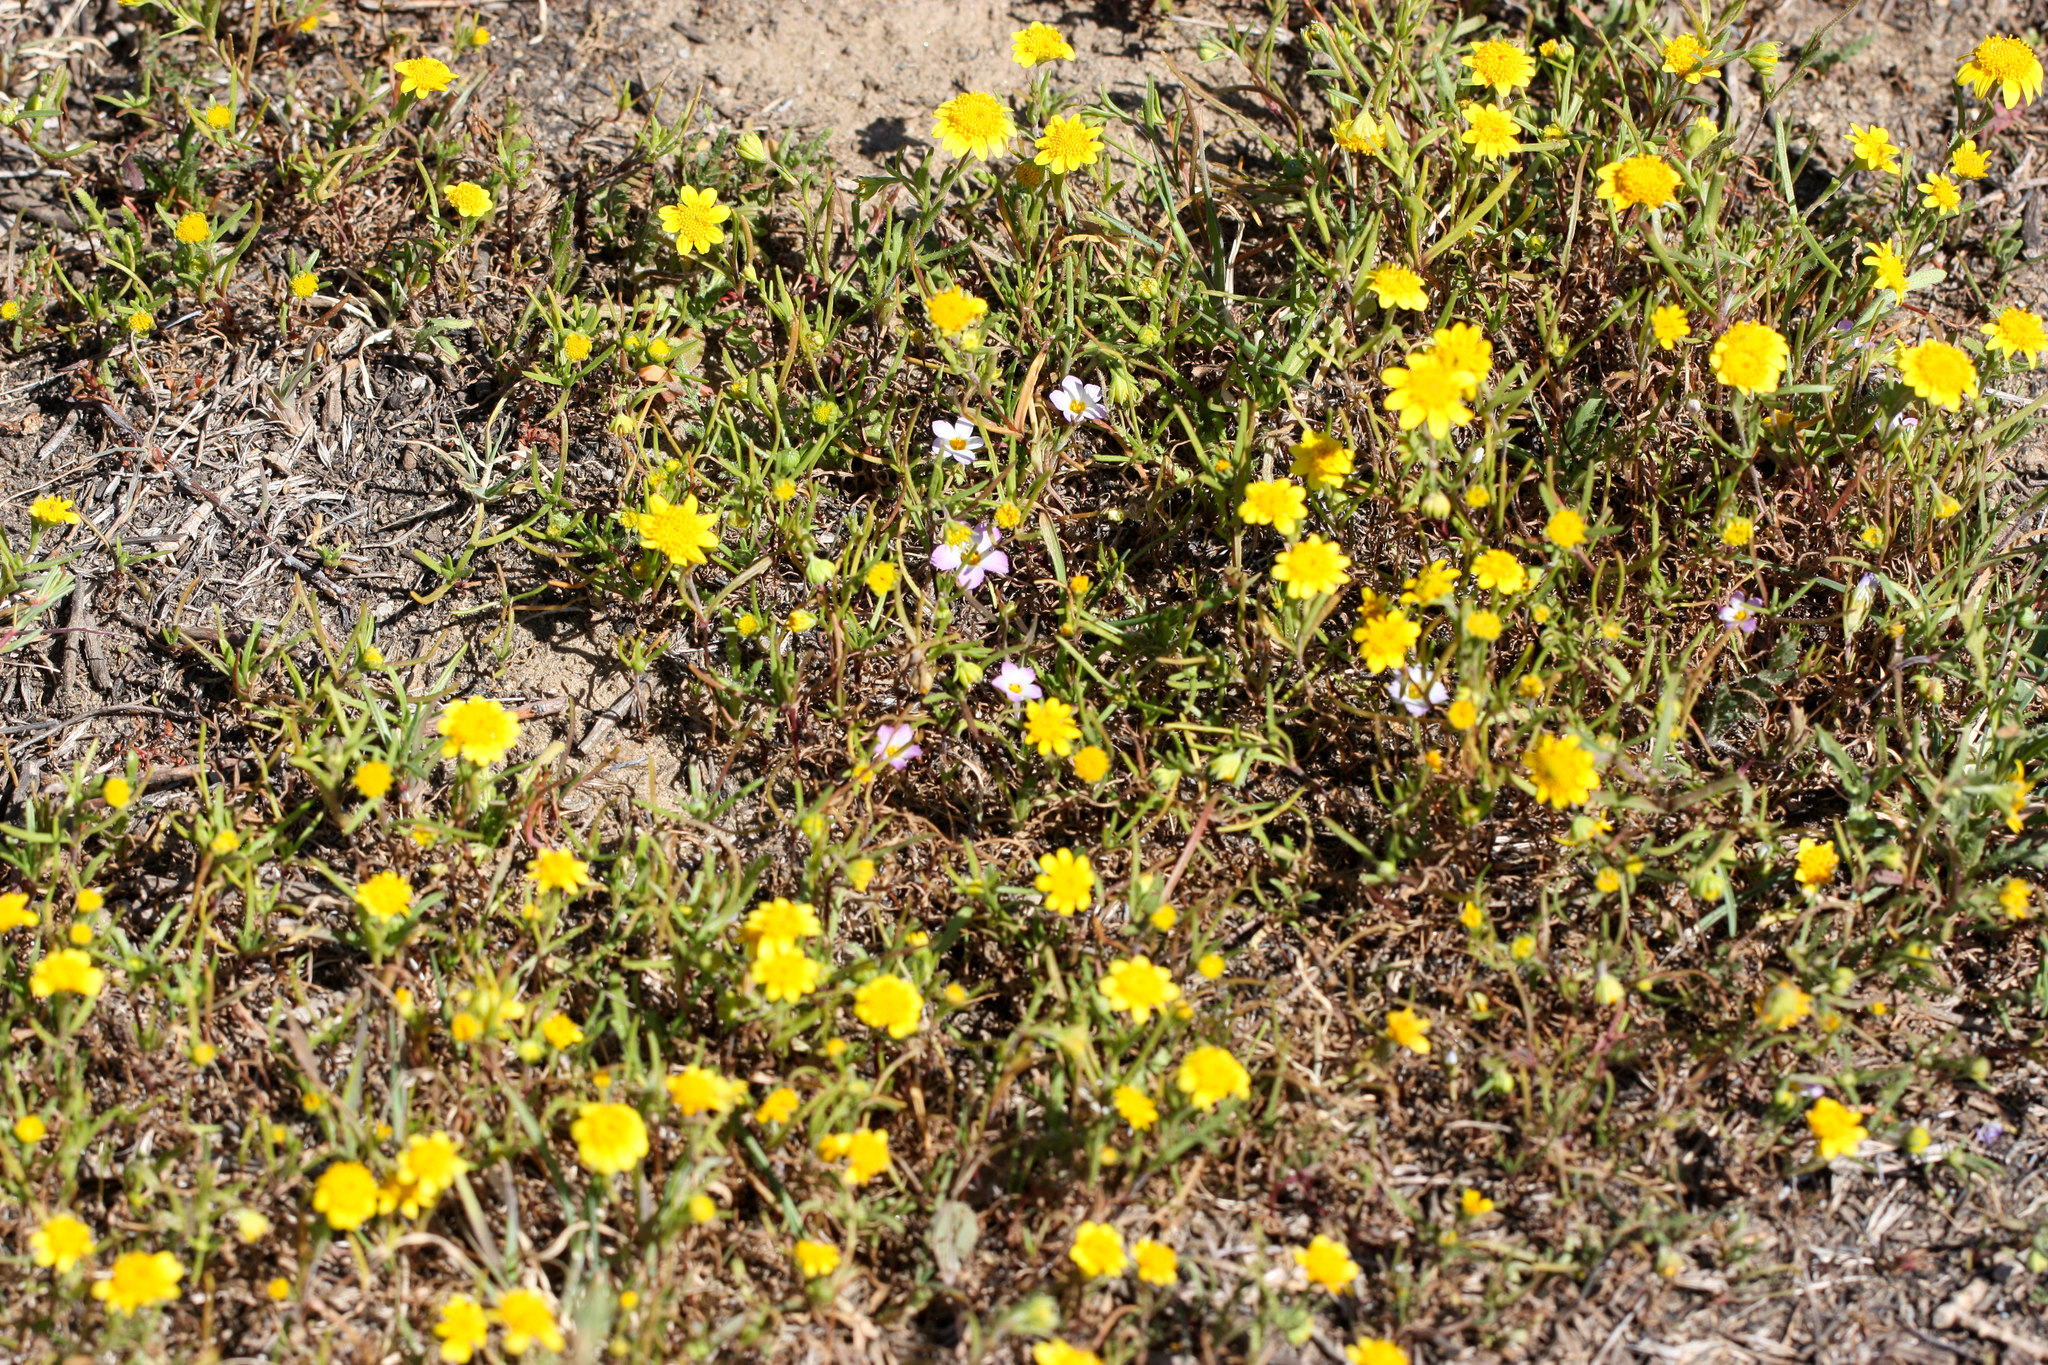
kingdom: Plantae
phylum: Tracheophyta
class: Magnoliopsida
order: Ericales
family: Polemoniaceae
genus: Linanthus
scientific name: Linanthus dianthiflorus
